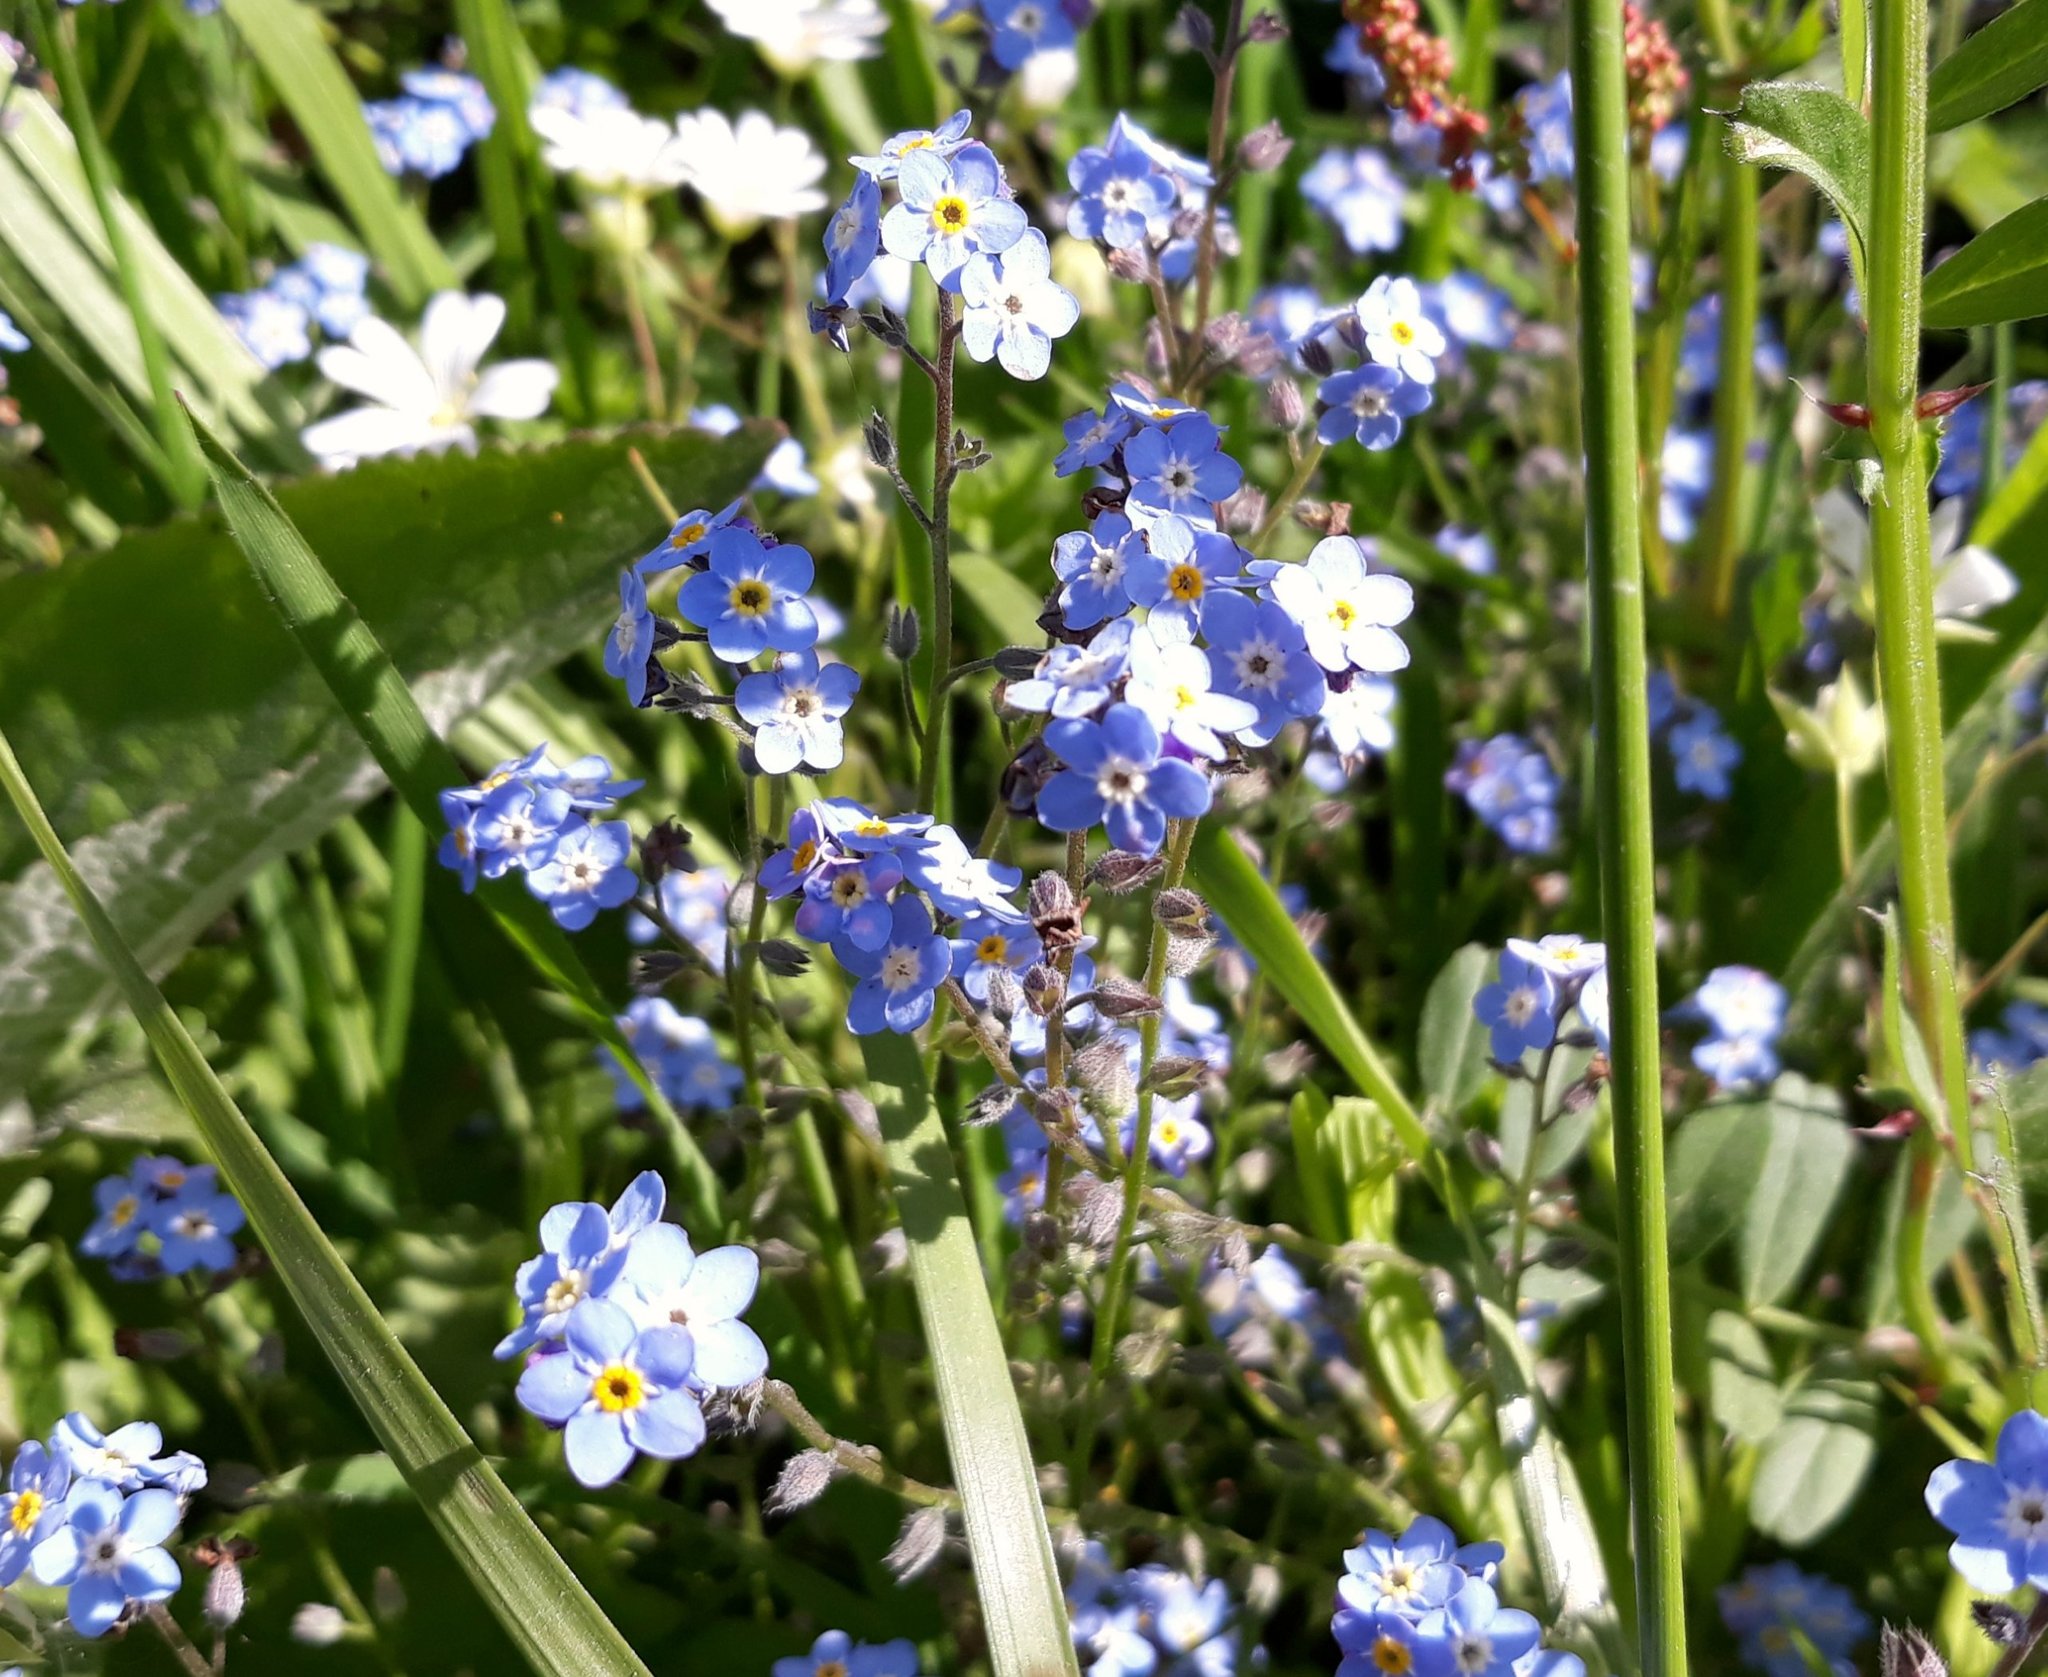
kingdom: Plantae
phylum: Tracheophyta
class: Magnoliopsida
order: Boraginales
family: Boraginaceae
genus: Myosotis
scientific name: Myosotis sylvatica
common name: Wood forget-me-not
